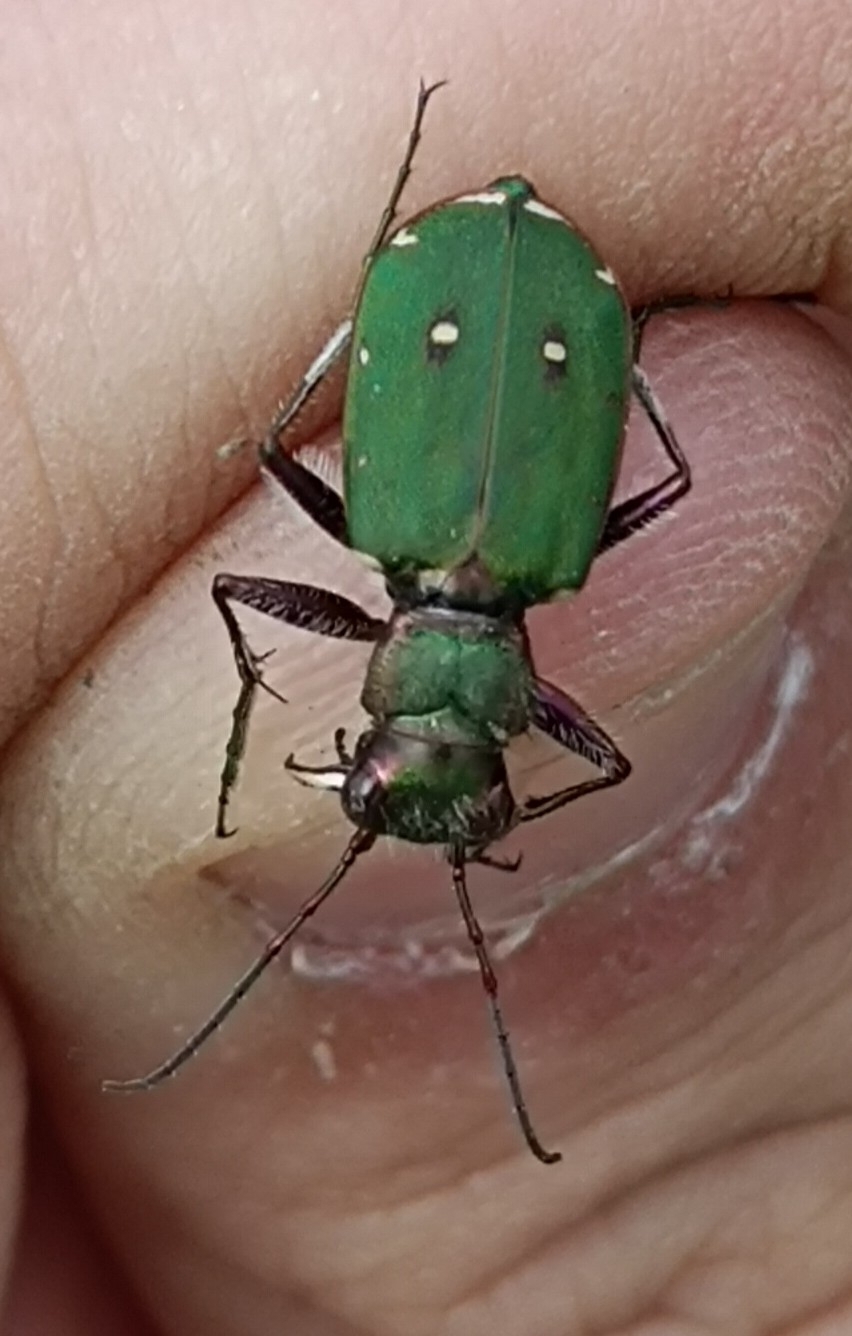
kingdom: Animalia
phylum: Arthropoda
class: Insecta
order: Coleoptera
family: Carabidae
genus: Cicindela
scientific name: Cicindela campestris
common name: Common tiger beetle
